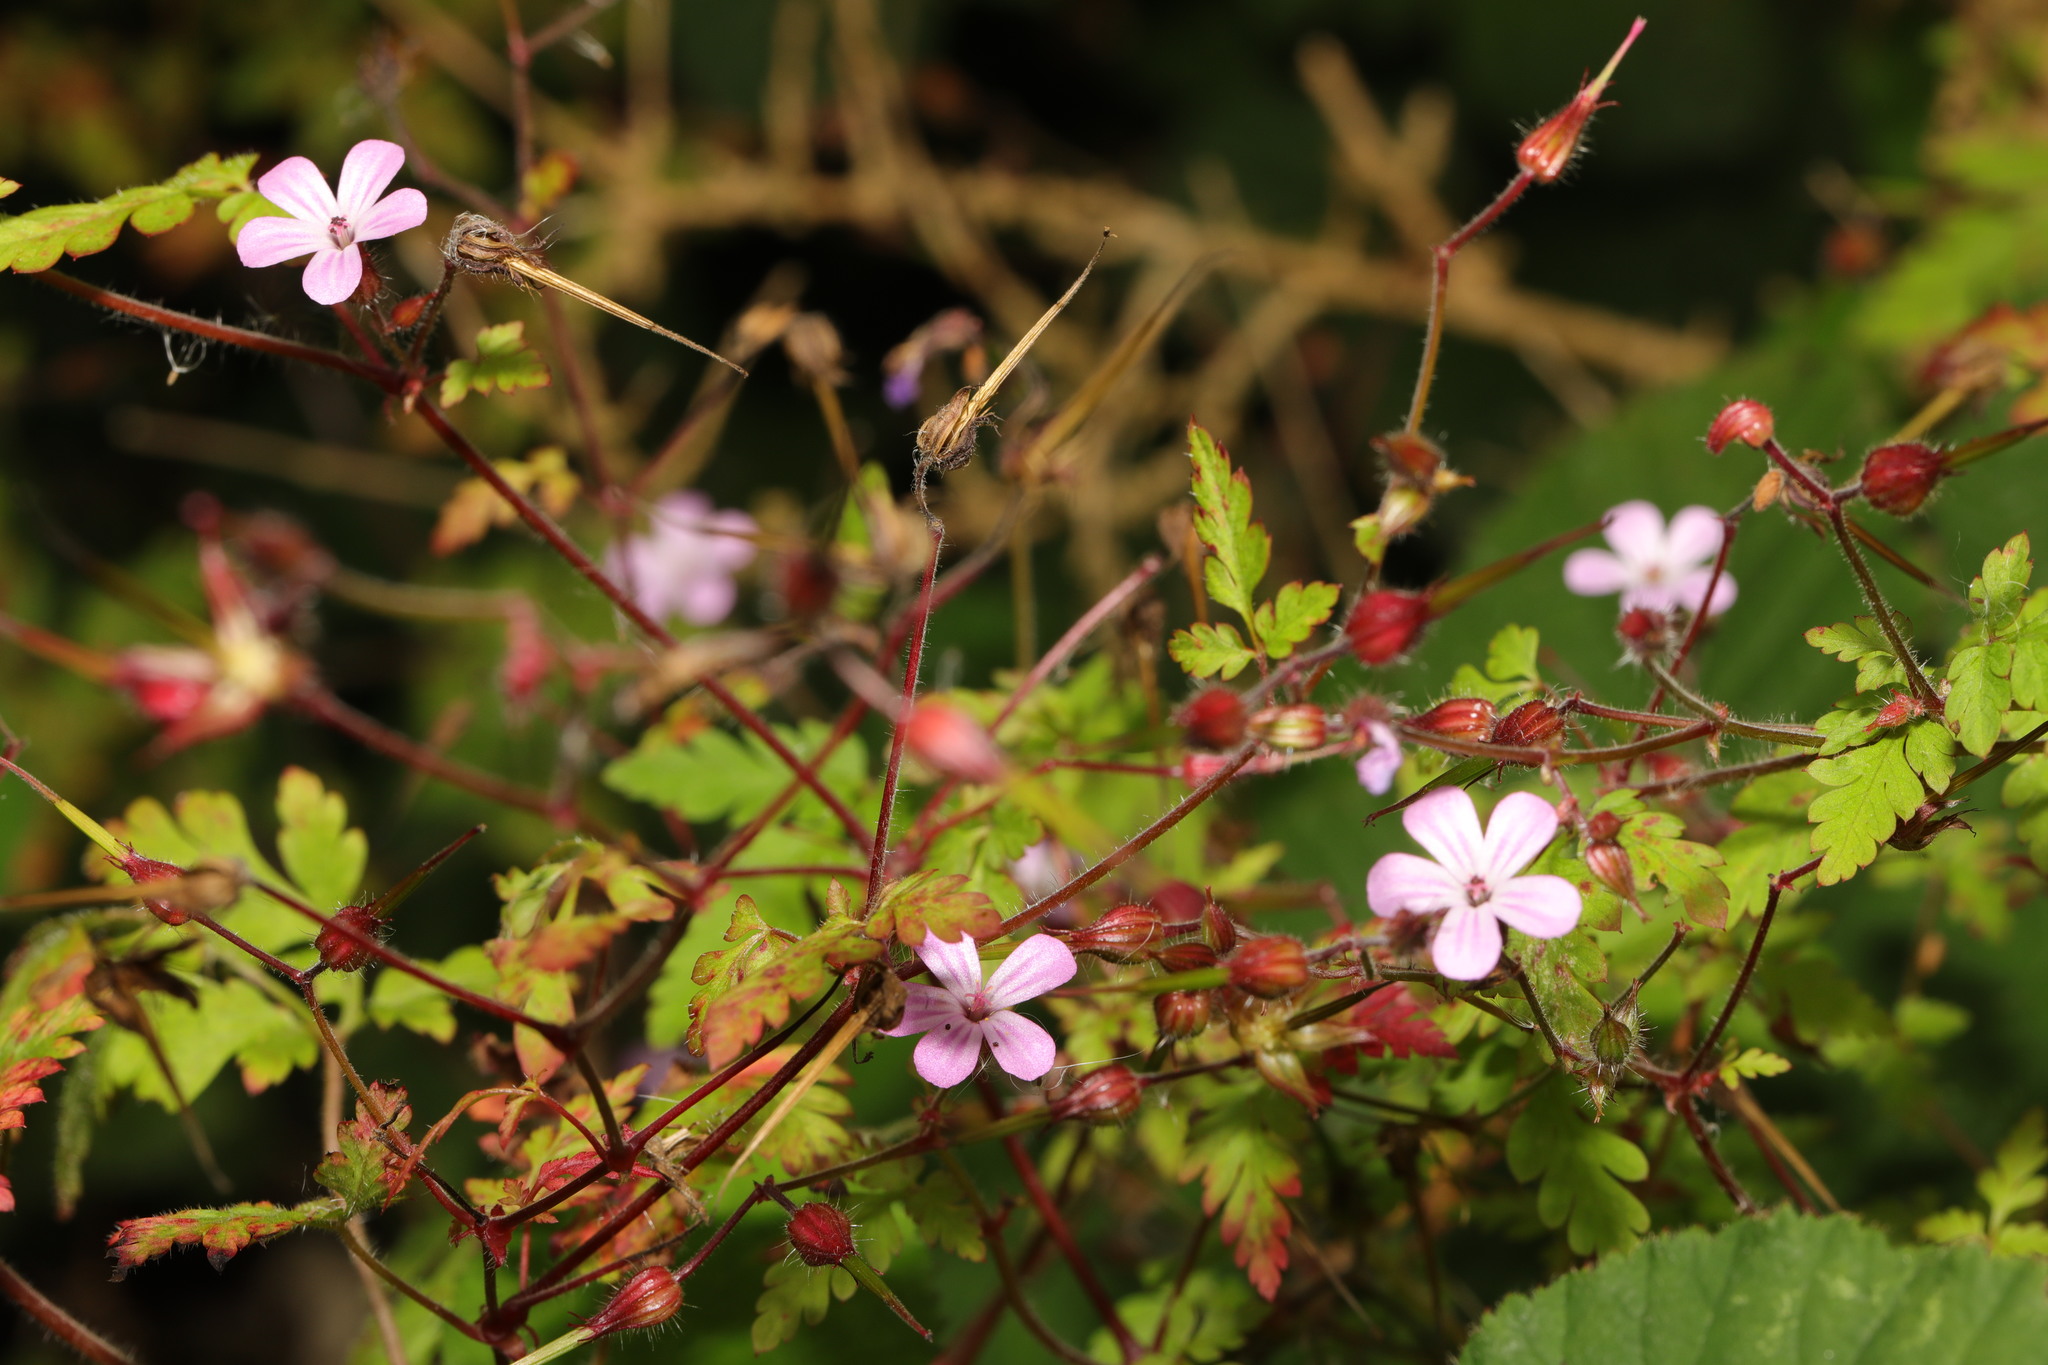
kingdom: Plantae
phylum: Tracheophyta
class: Magnoliopsida
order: Geraniales
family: Geraniaceae
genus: Geranium
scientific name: Geranium robertianum
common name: Herb-robert
